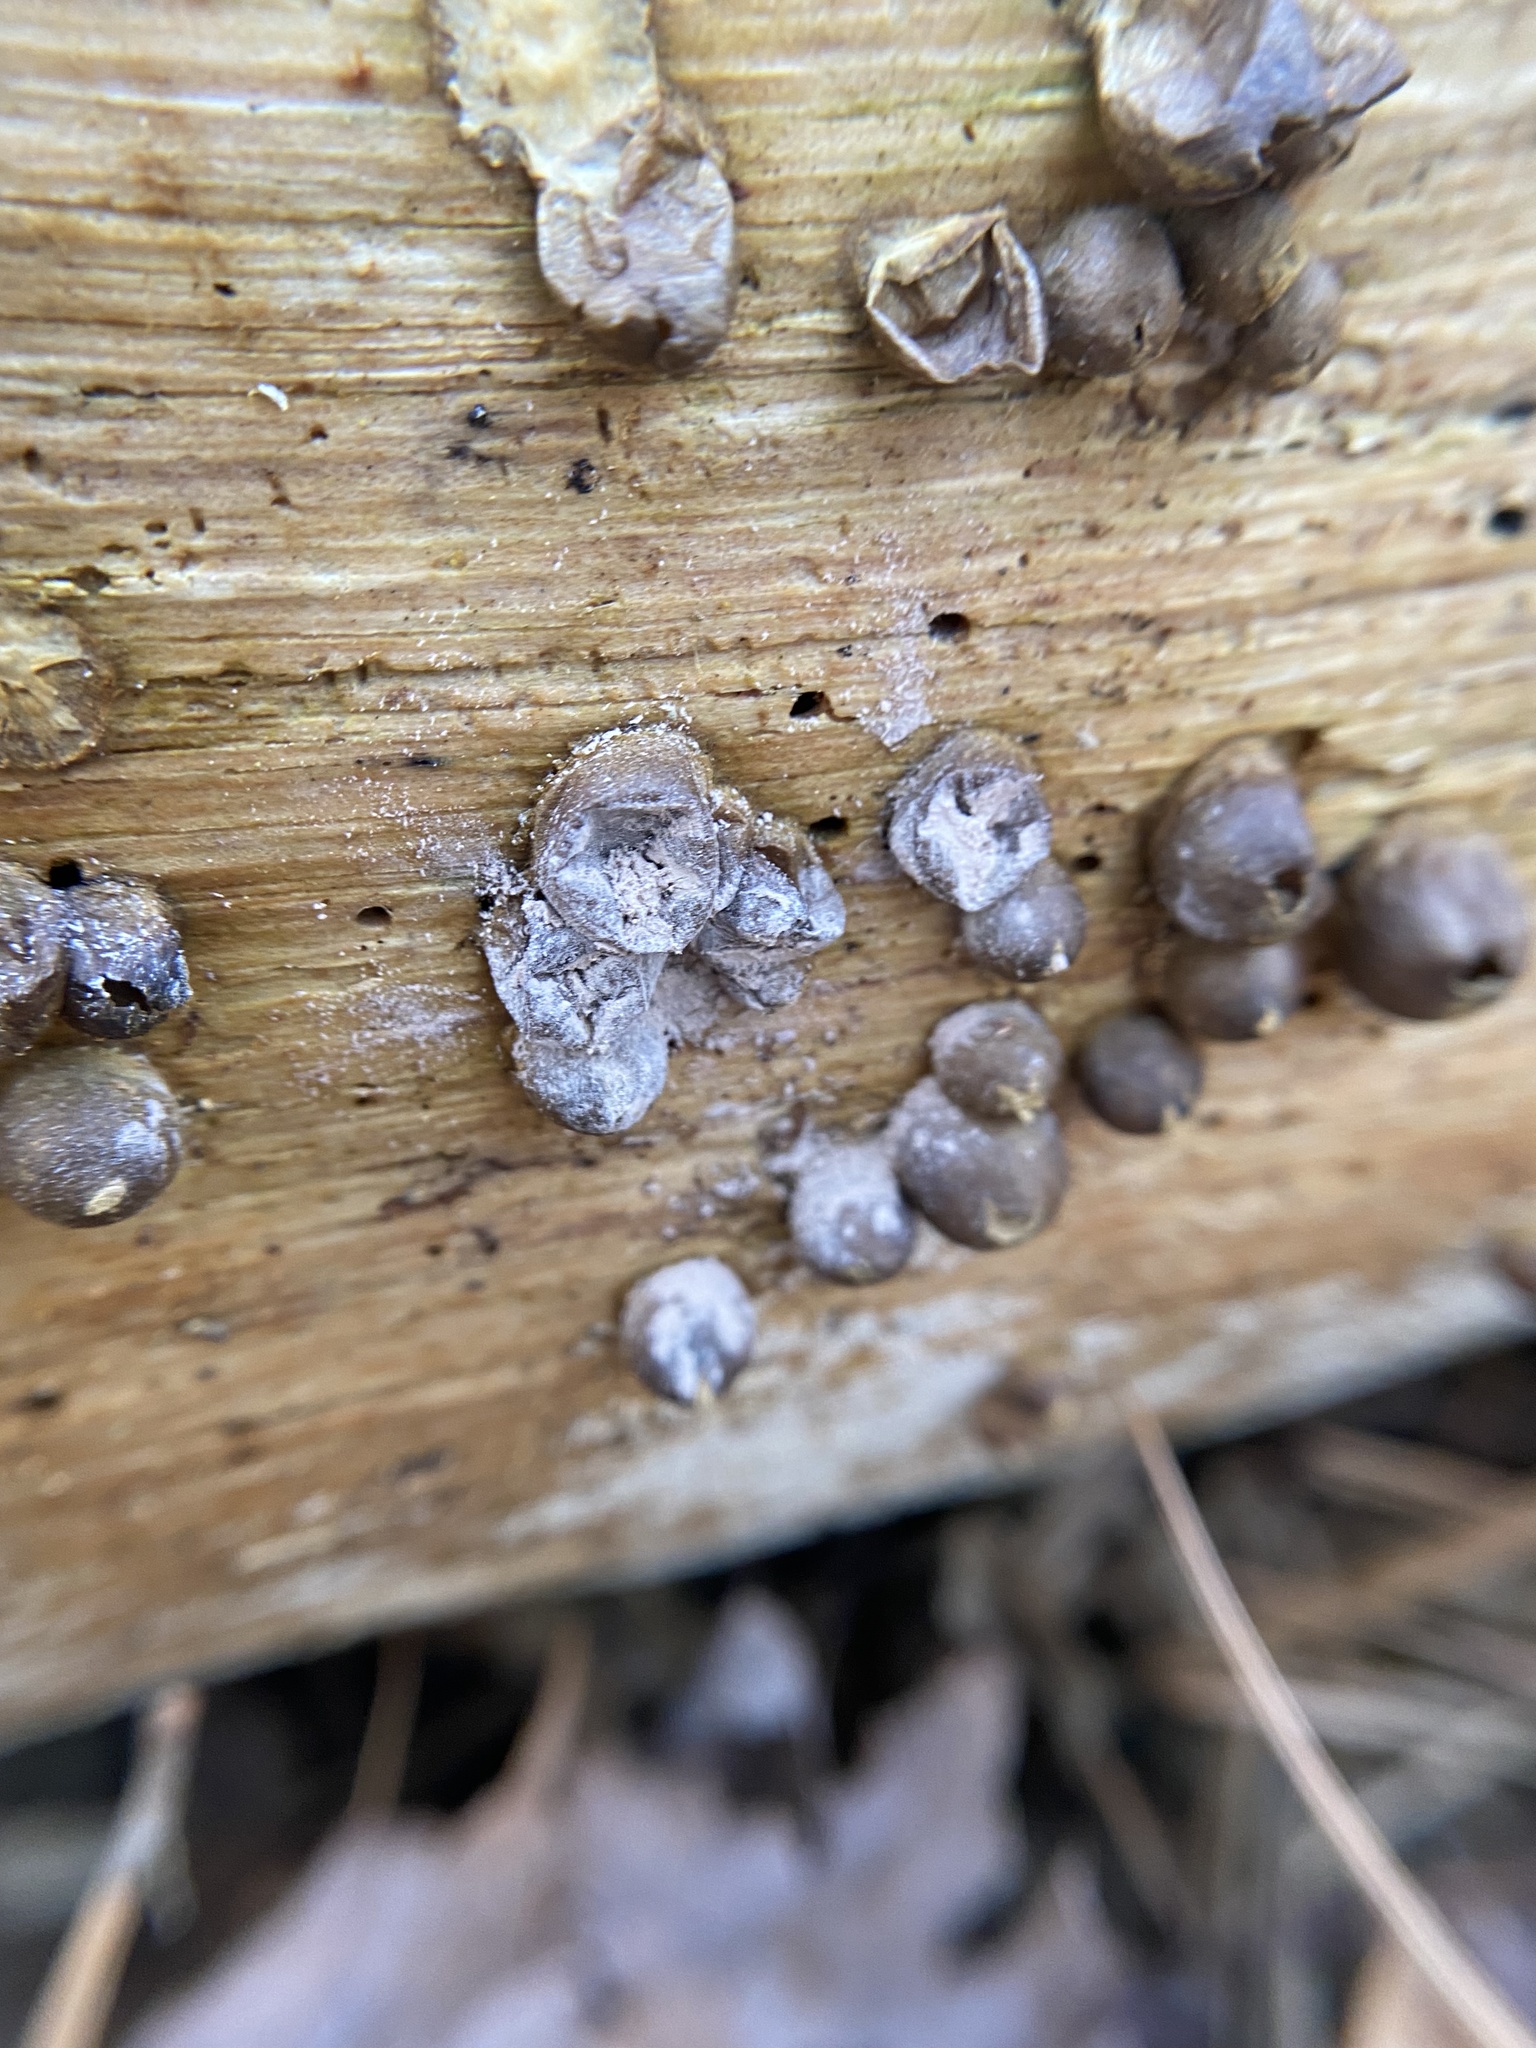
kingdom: Protozoa
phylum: Mycetozoa
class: Myxomycetes
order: Cribrariales
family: Tubiferaceae
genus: Lycogala
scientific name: Lycogala epidendrum
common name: Wolf's milk
